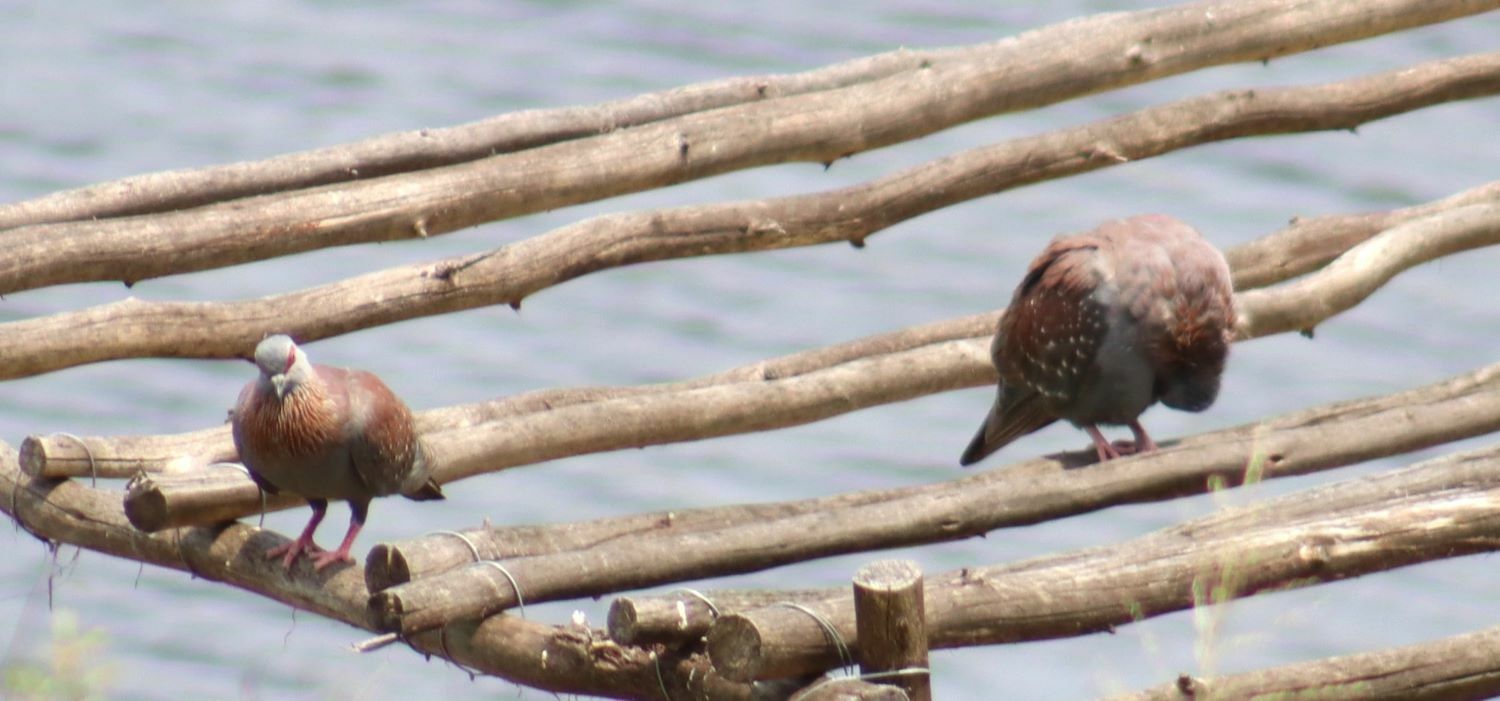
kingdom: Animalia
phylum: Chordata
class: Aves
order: Columbiformes
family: Columbidae
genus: Columba
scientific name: Columba guinea
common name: Speckled pigeon
